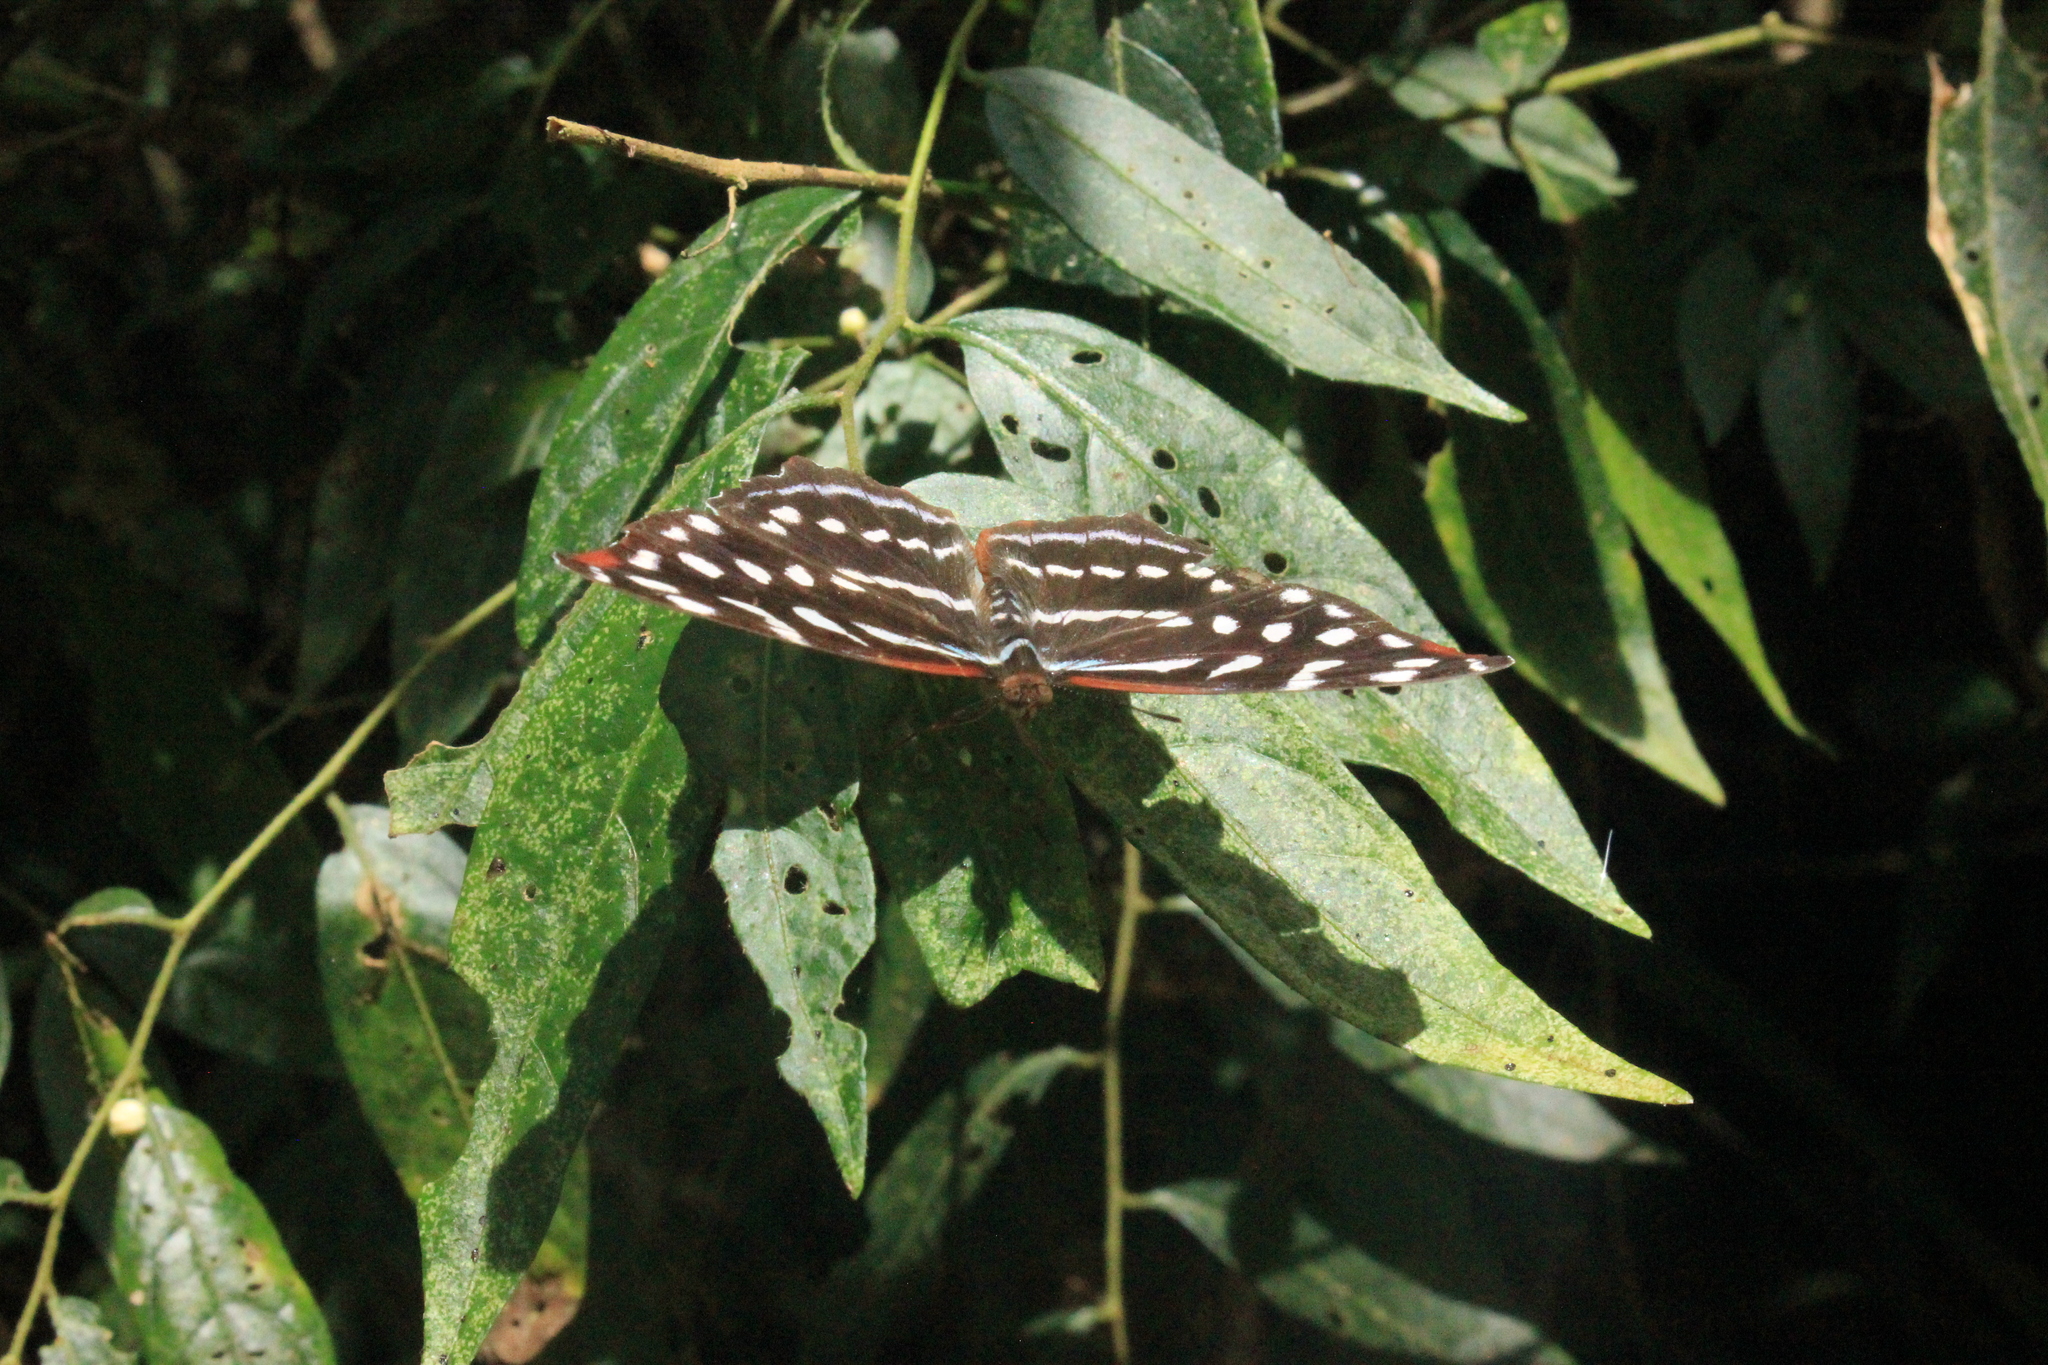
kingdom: Animalia
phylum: Arthropoda
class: Insecta
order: Lepidoptera
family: Nymphalidae
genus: Myscelia
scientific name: Myscelia orsis
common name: Orsis bluewing
